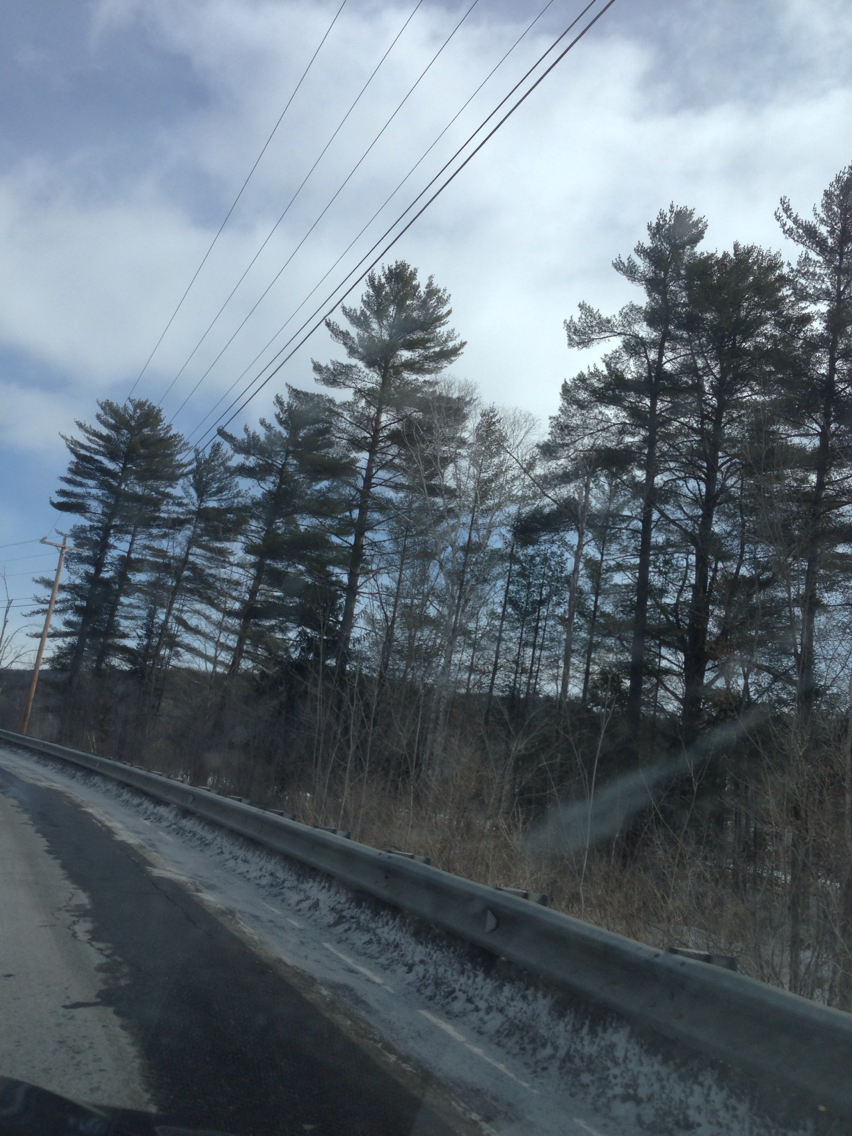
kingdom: Plantae
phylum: Tracheophyta
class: Pinopsida
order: Pinales
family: Pinaceae
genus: Pinus
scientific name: Pinus strobus
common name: Weymouth pine
